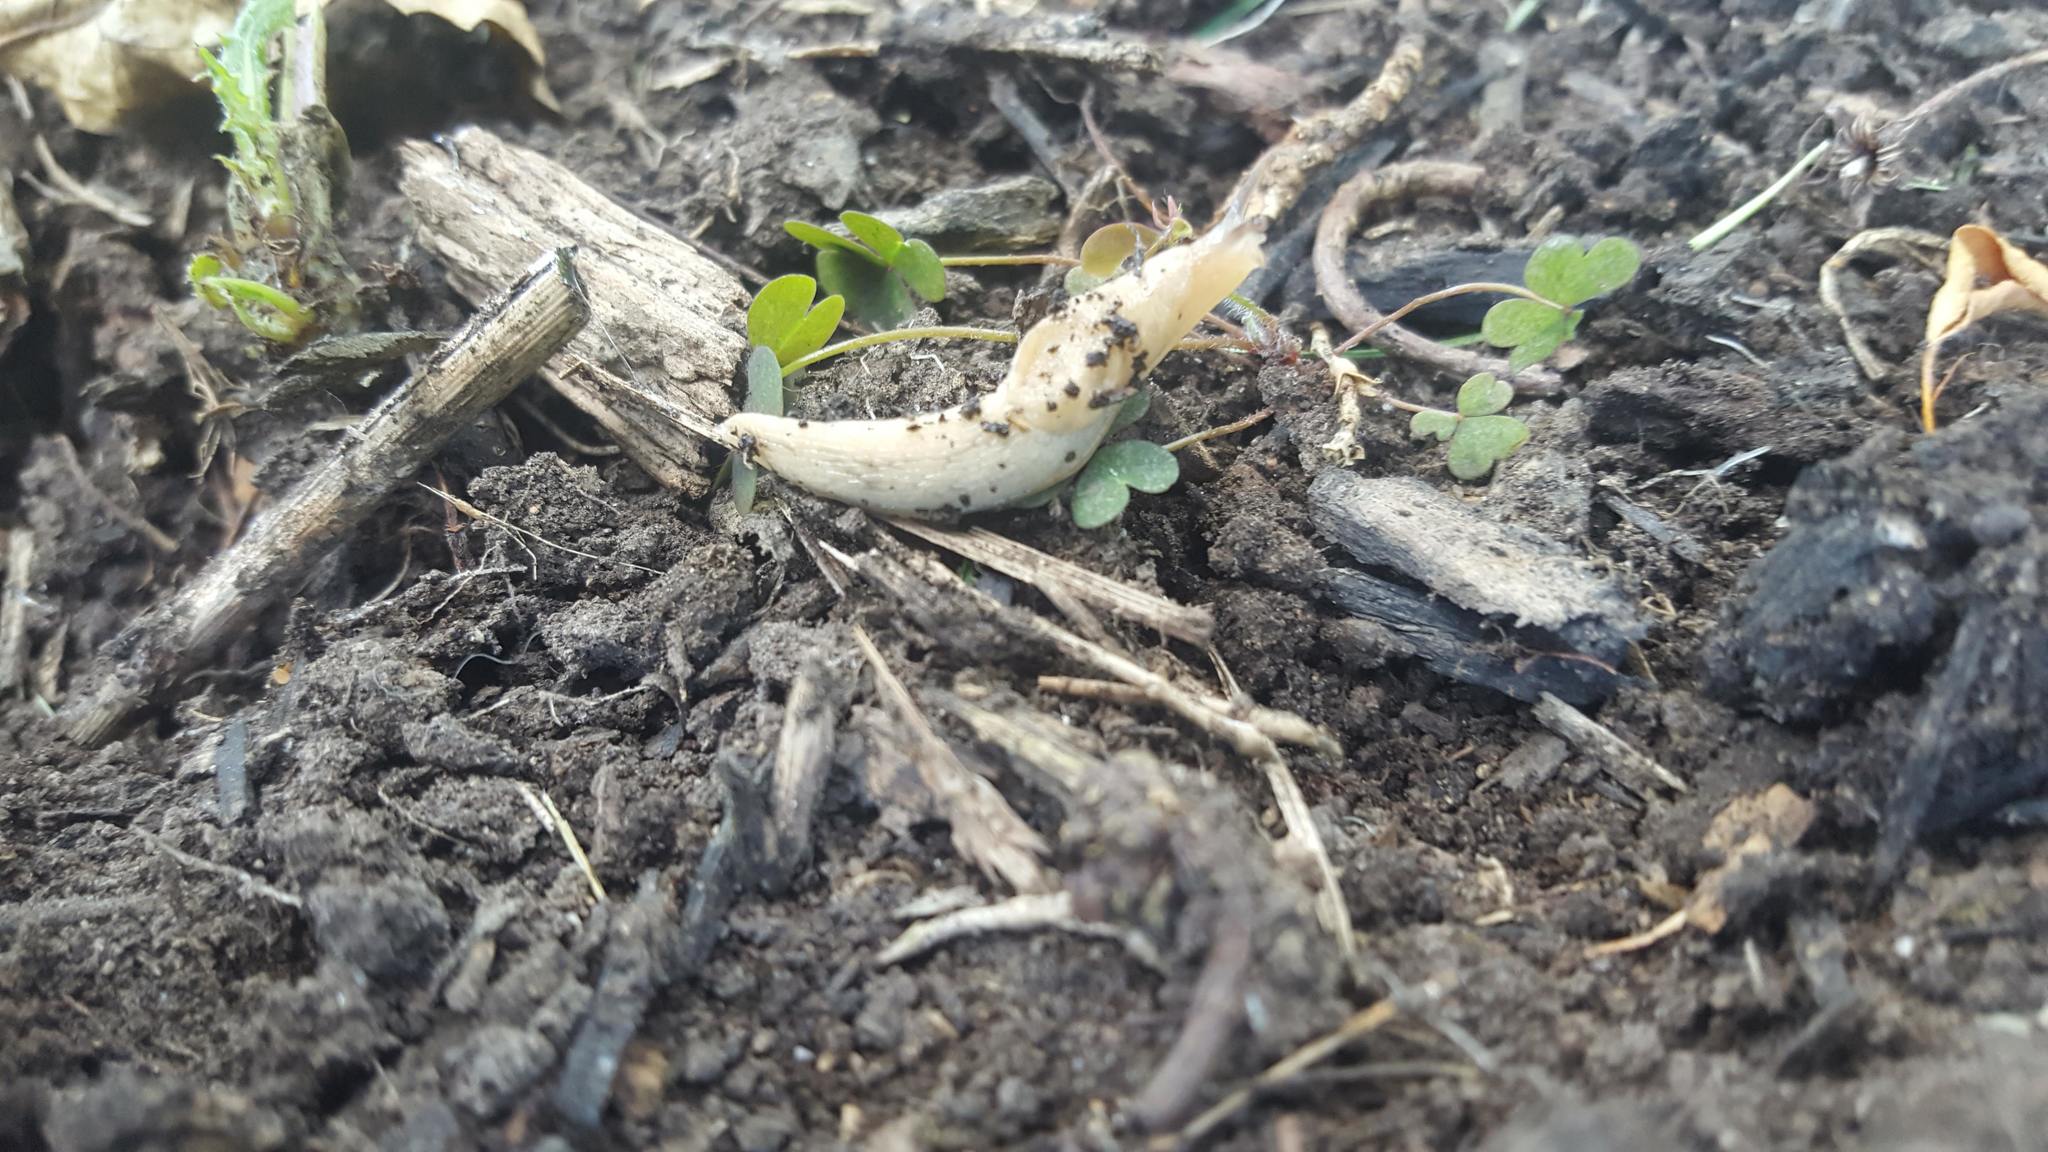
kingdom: Animalia
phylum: Mollusca
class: Gastropoda
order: Stylommatophora
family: Agriolimacidae
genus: Deroceras
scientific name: Deroceras laeve
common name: Marsh slug
